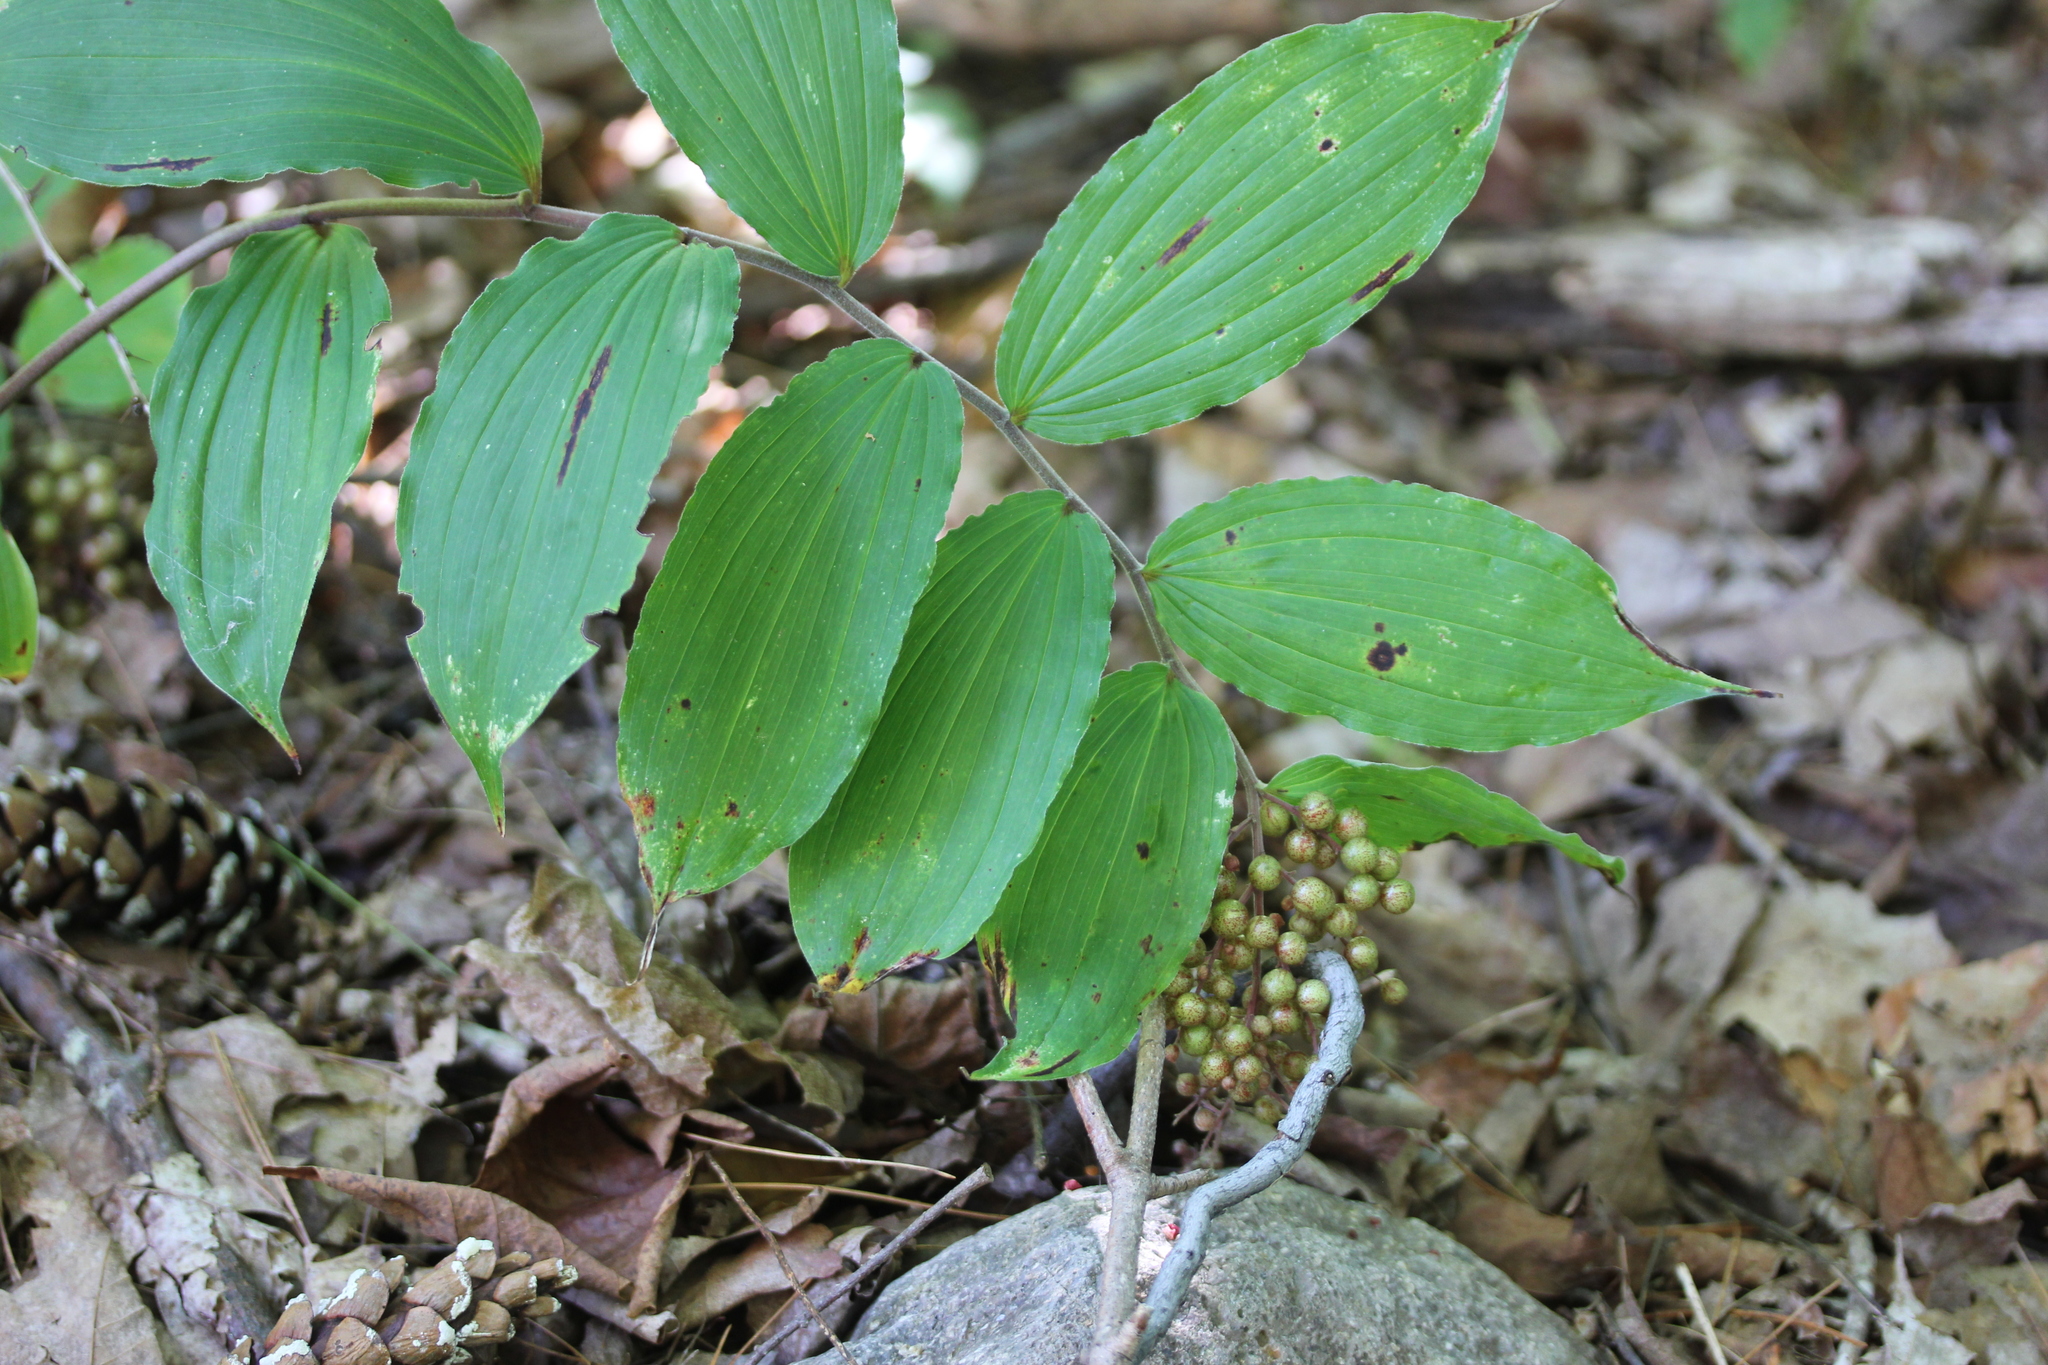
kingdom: Plantae
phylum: Tracheophyta
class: Liliopsida
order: Asparagales
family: Asparagaceae
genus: Maianthemum
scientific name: Maianthemum racemosum
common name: False spikenard
